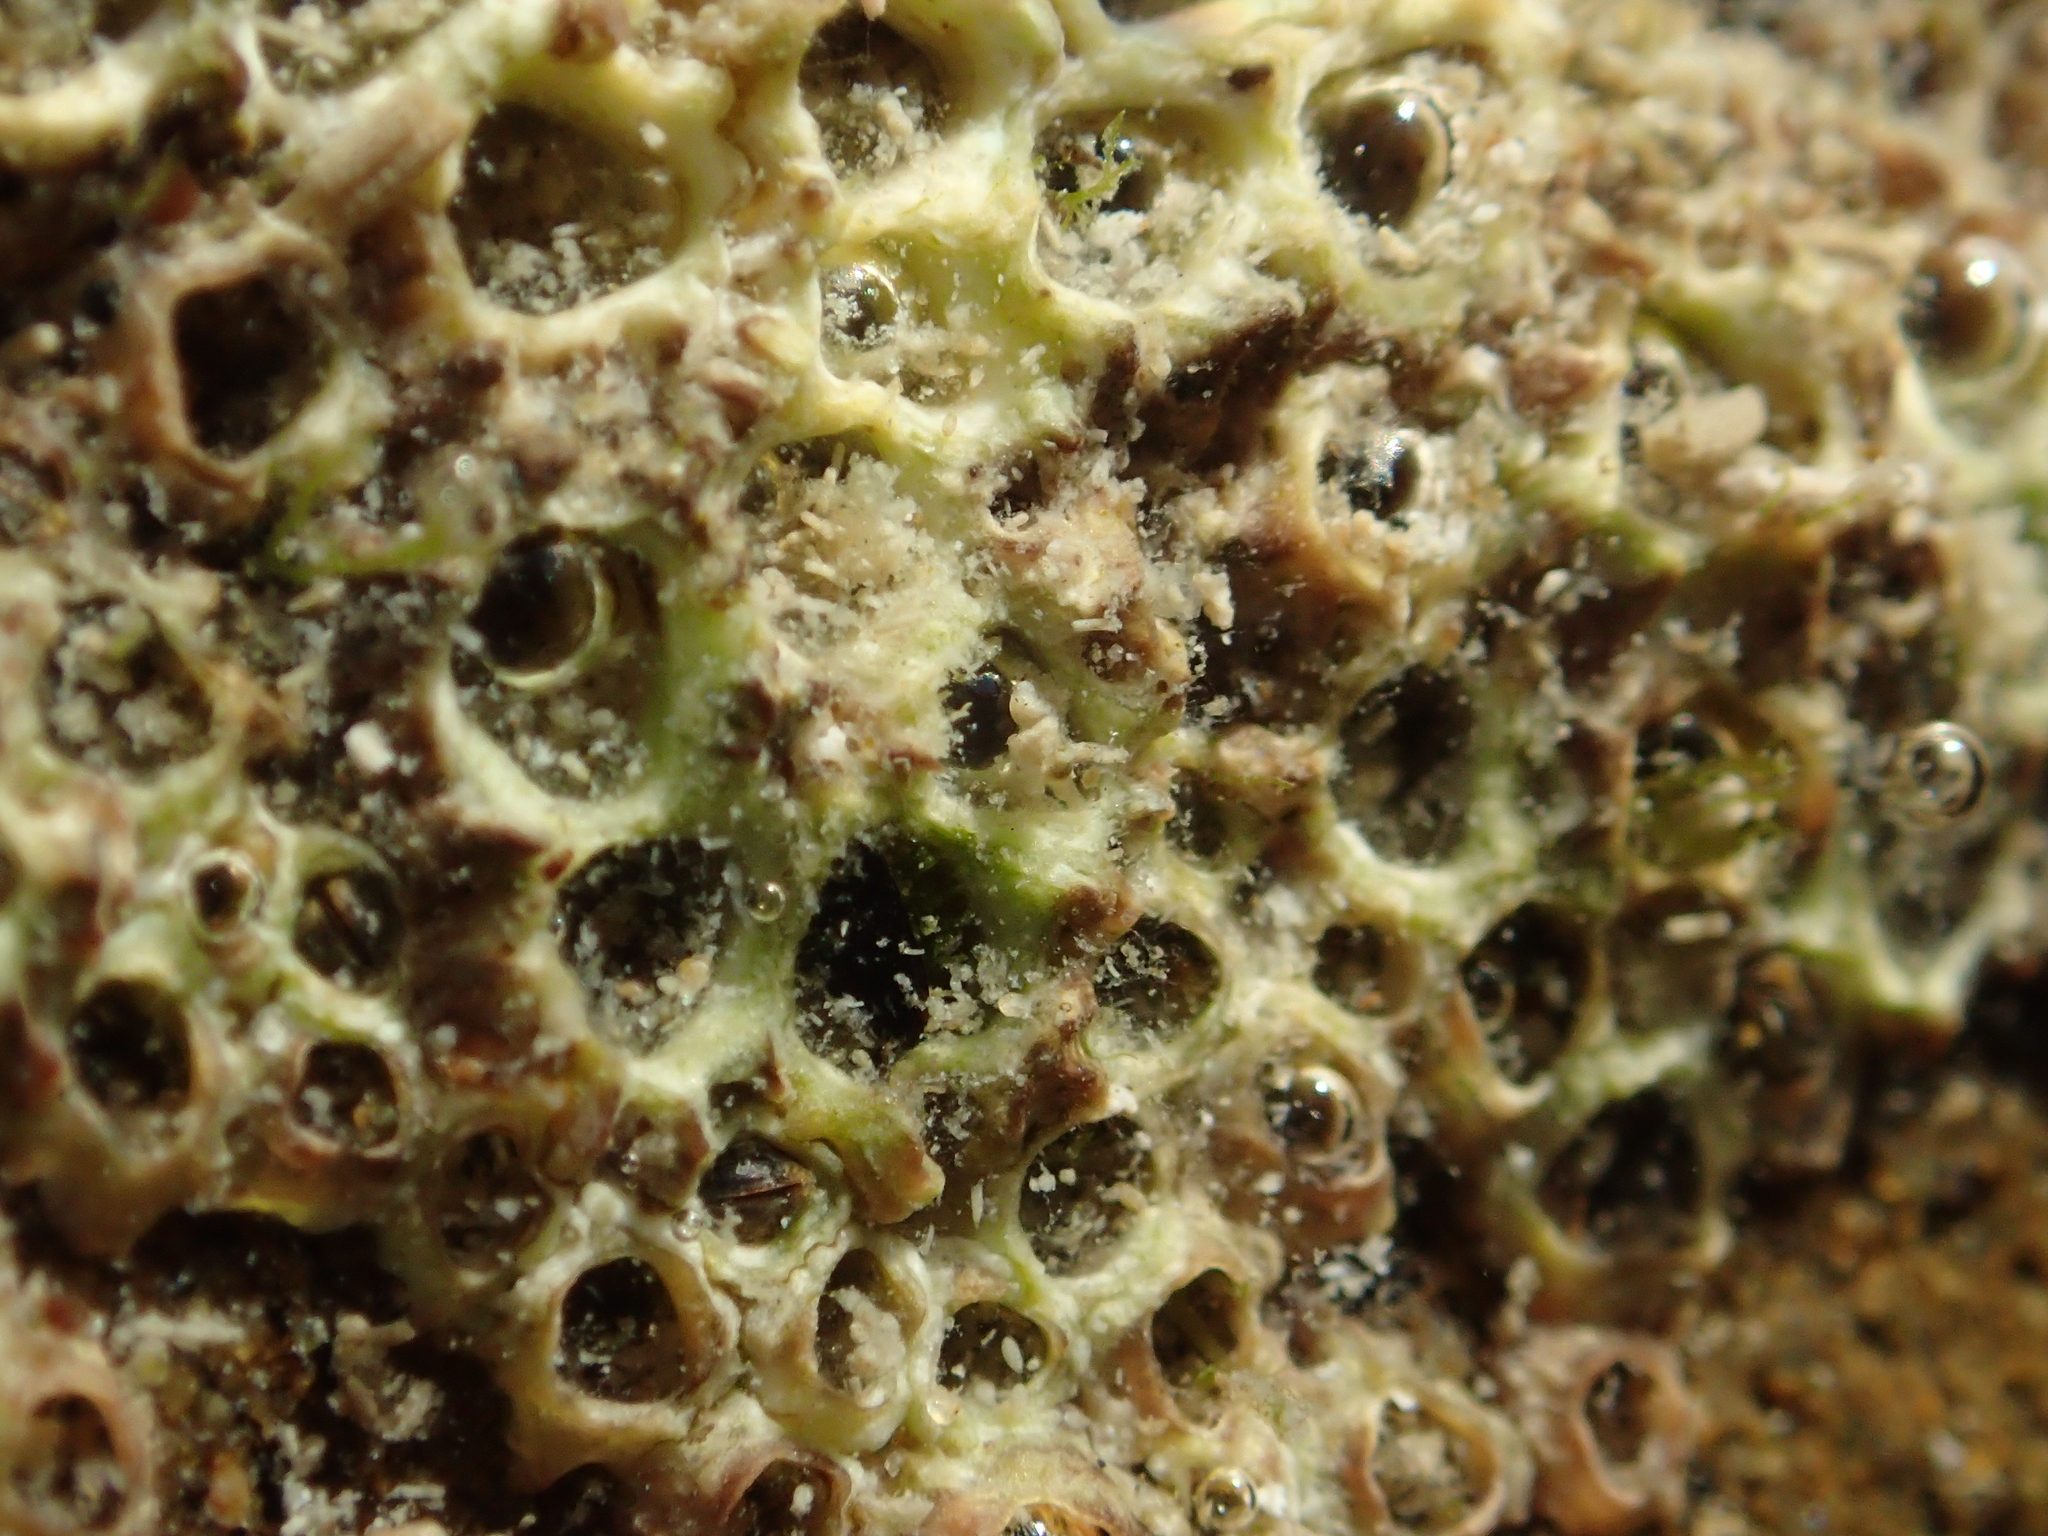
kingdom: Animalia
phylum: Arthropoda
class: Maxillopoda
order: Sessilia
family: Chthamalidae
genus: Chamaesipho
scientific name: Chamaesipho columna
